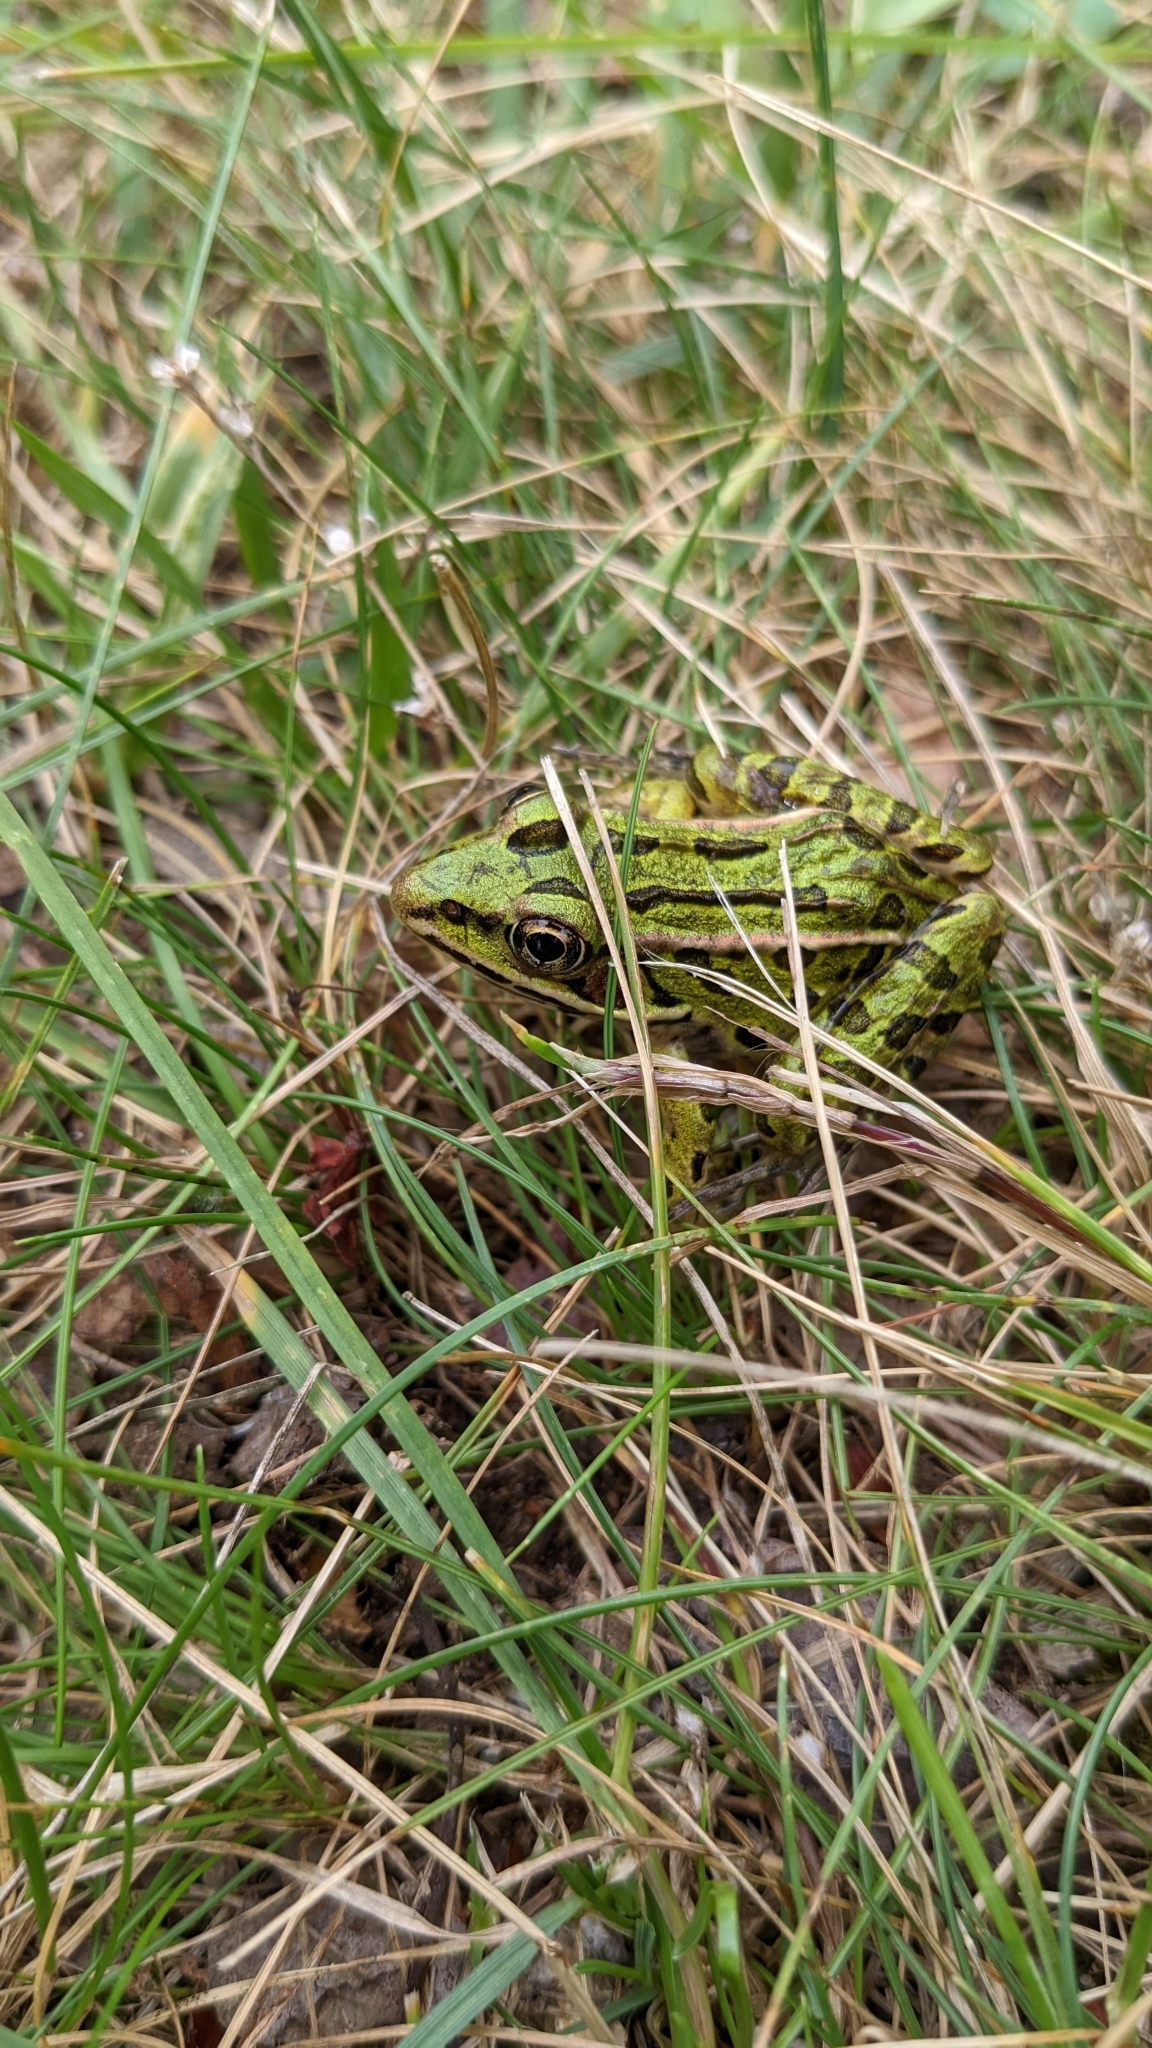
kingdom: Animalia
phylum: Chordata
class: Amphibia
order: Anura
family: Ranidae
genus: Lithobates
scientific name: Lithobates pipiens
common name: Northern leopard frog
